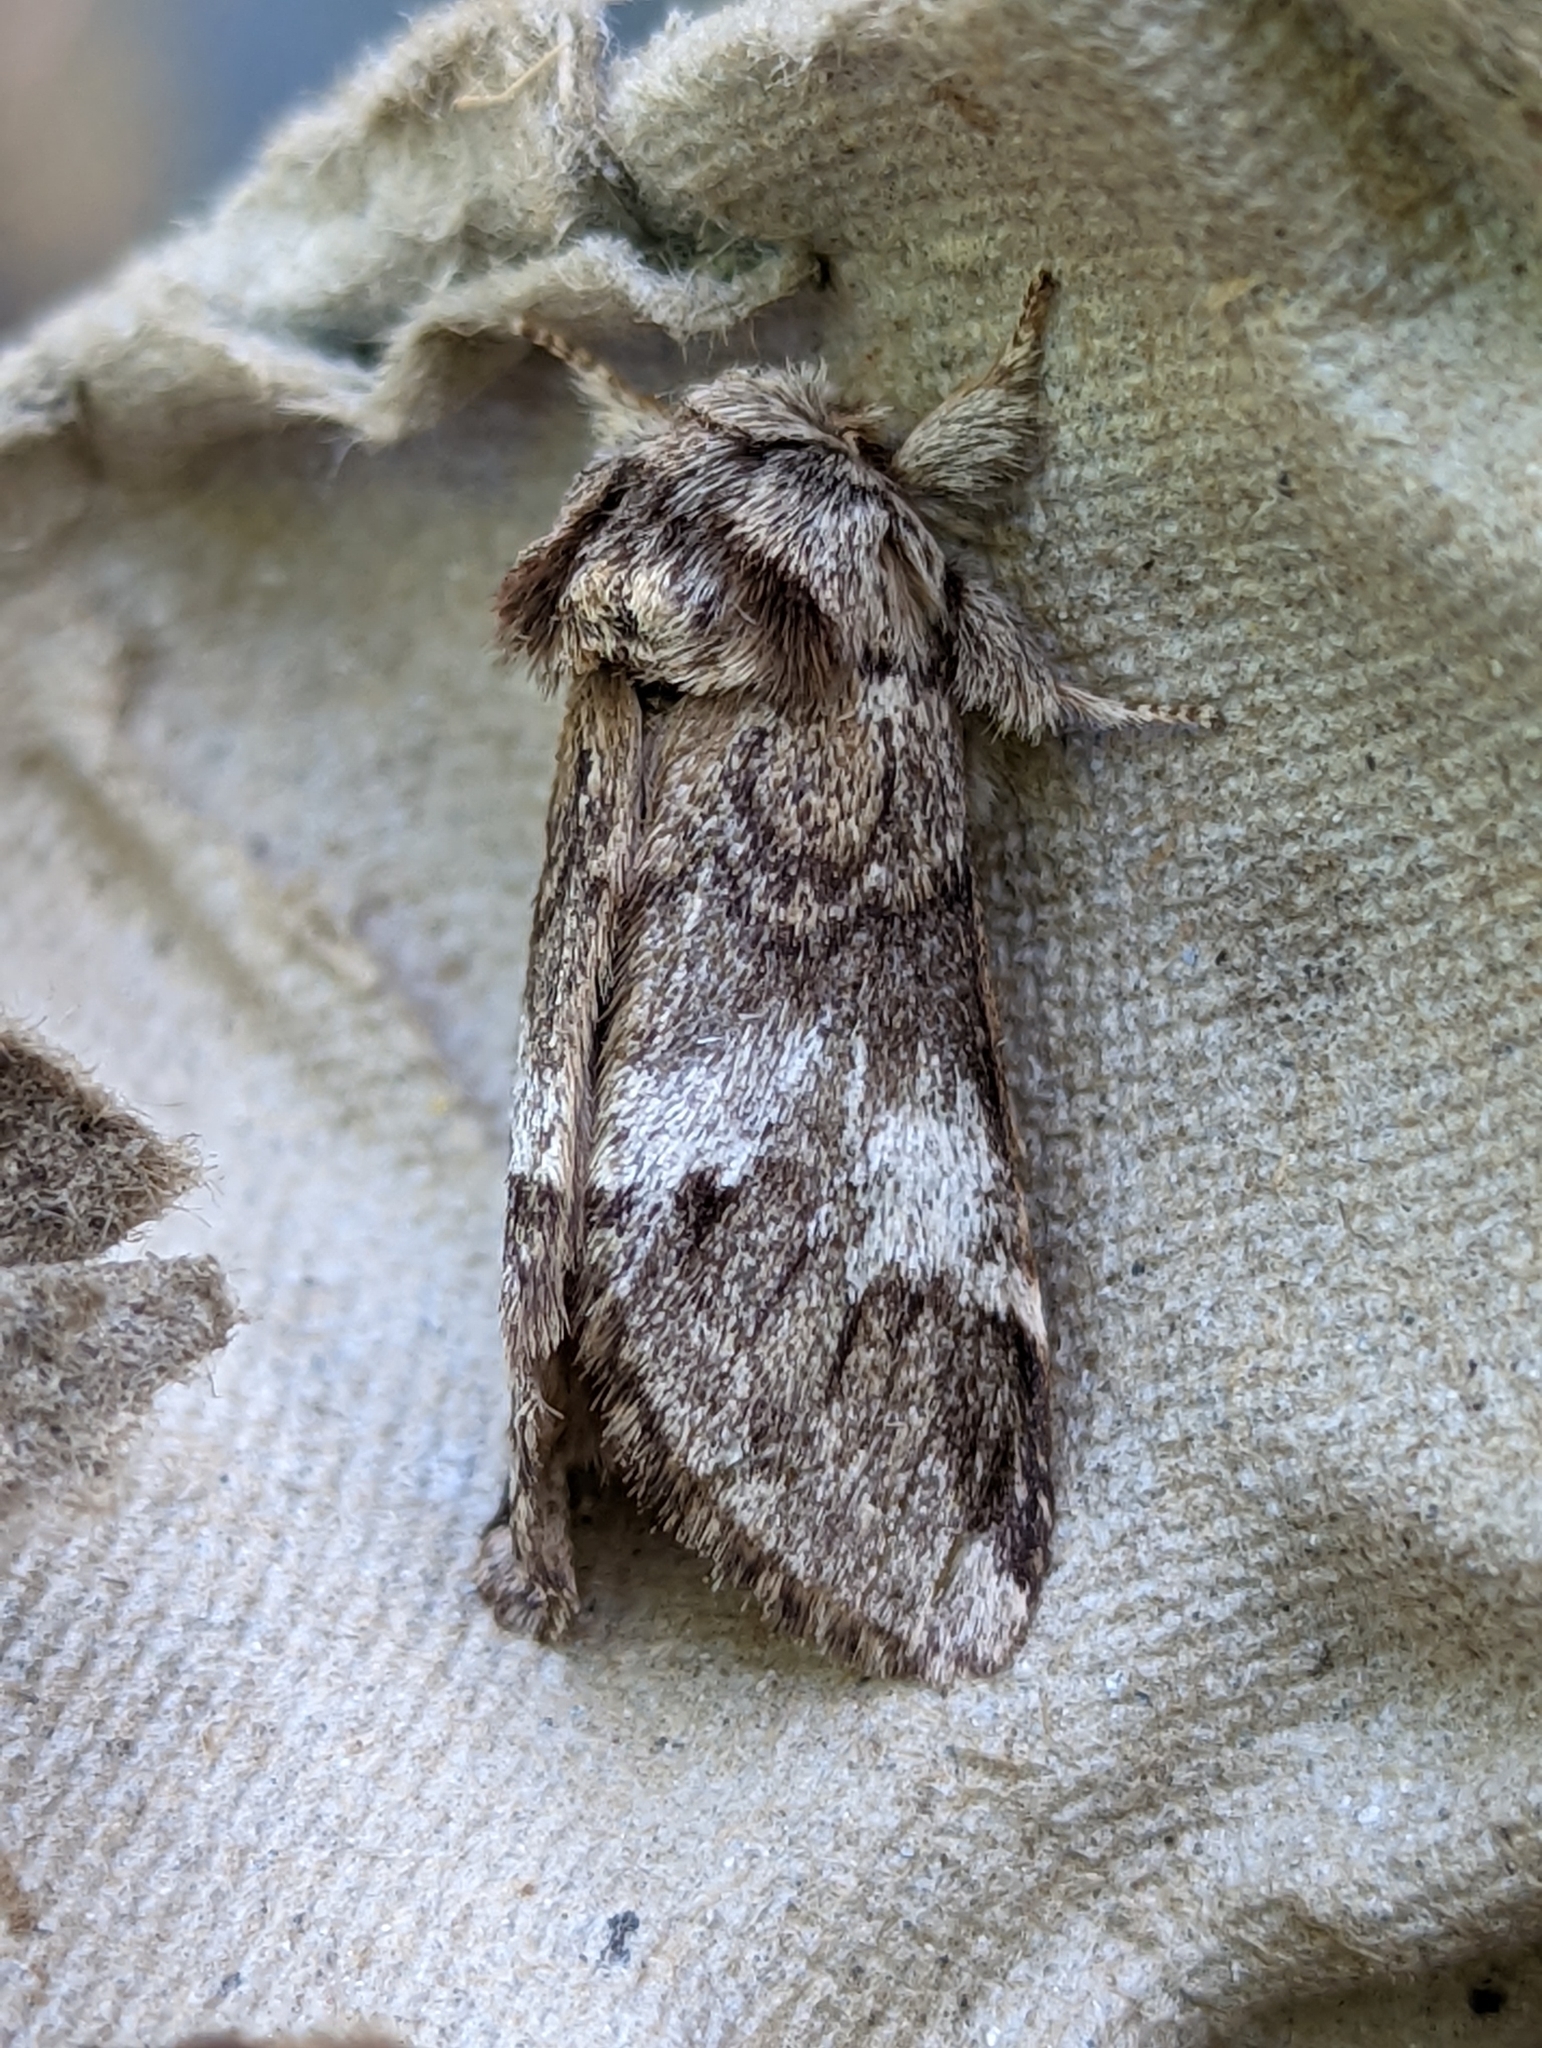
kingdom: Animalia
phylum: Arthropoda
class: Insecta
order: Lepidoptera
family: Notodontidae
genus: Drymonia
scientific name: Drymonia dodonaea
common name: Marbled brown
